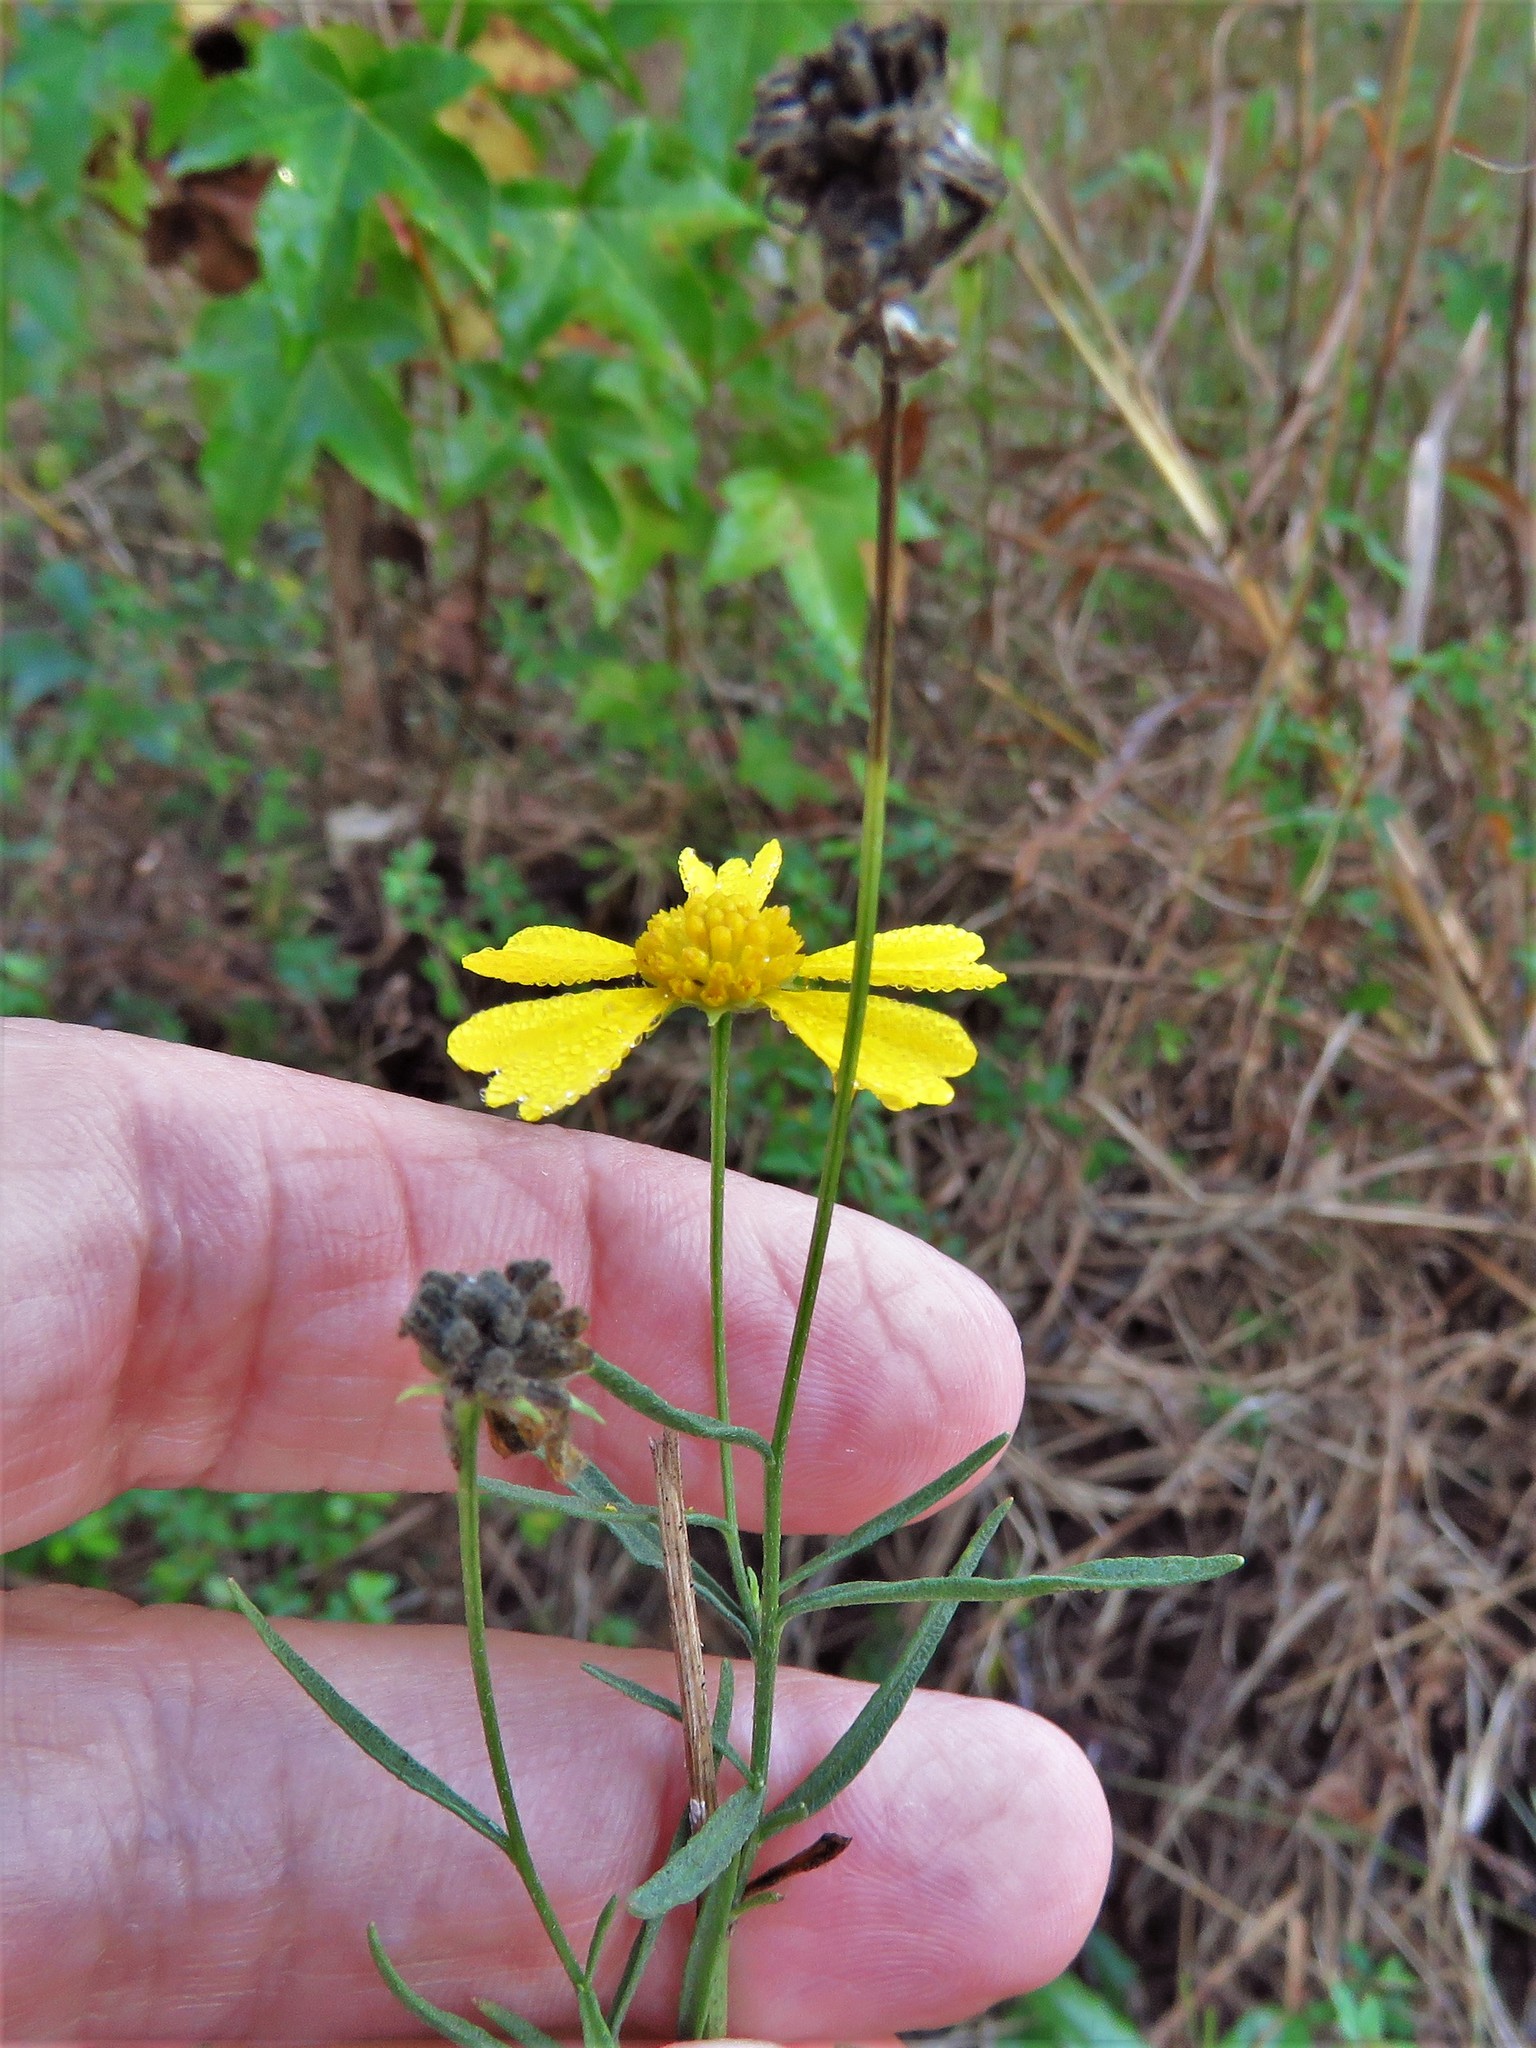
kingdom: Plantae
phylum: Tracheophyta
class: Magnoliopsida
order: Asterales
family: Asteraceae
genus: Helenium
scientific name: Helenium amarum
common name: Bitter sneezeweed
